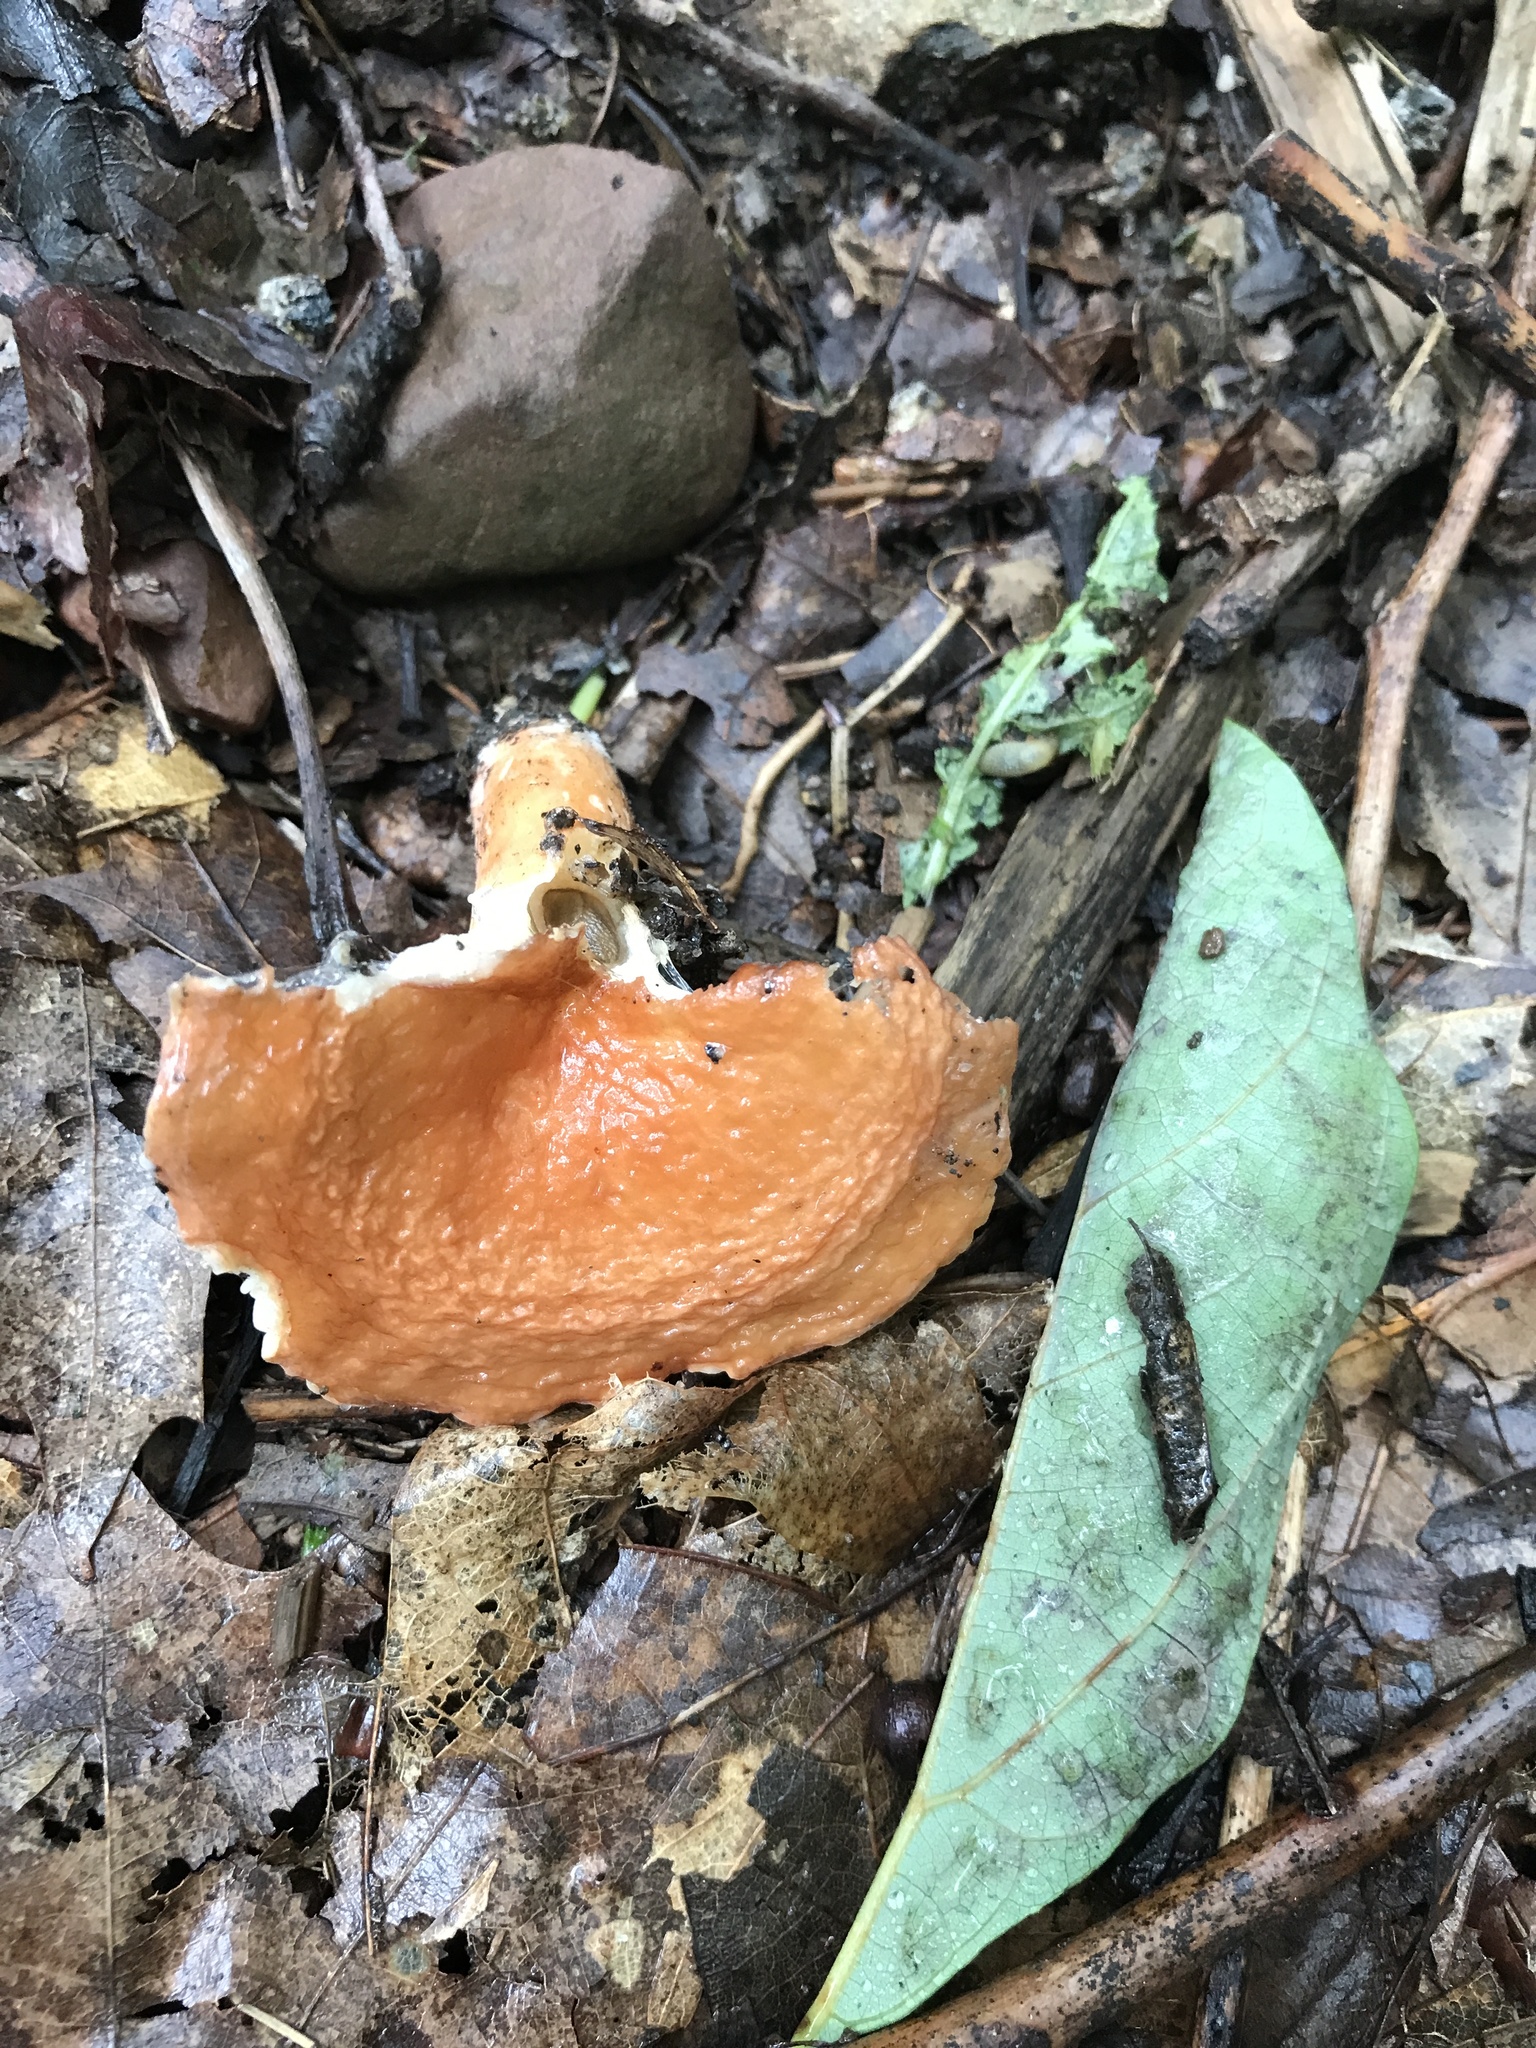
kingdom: Fungi
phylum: Basidiomycota
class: Agaricomycetes
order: Russulales
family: Russulaceae
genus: Lactarius
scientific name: Lactarius hygrophoroides
